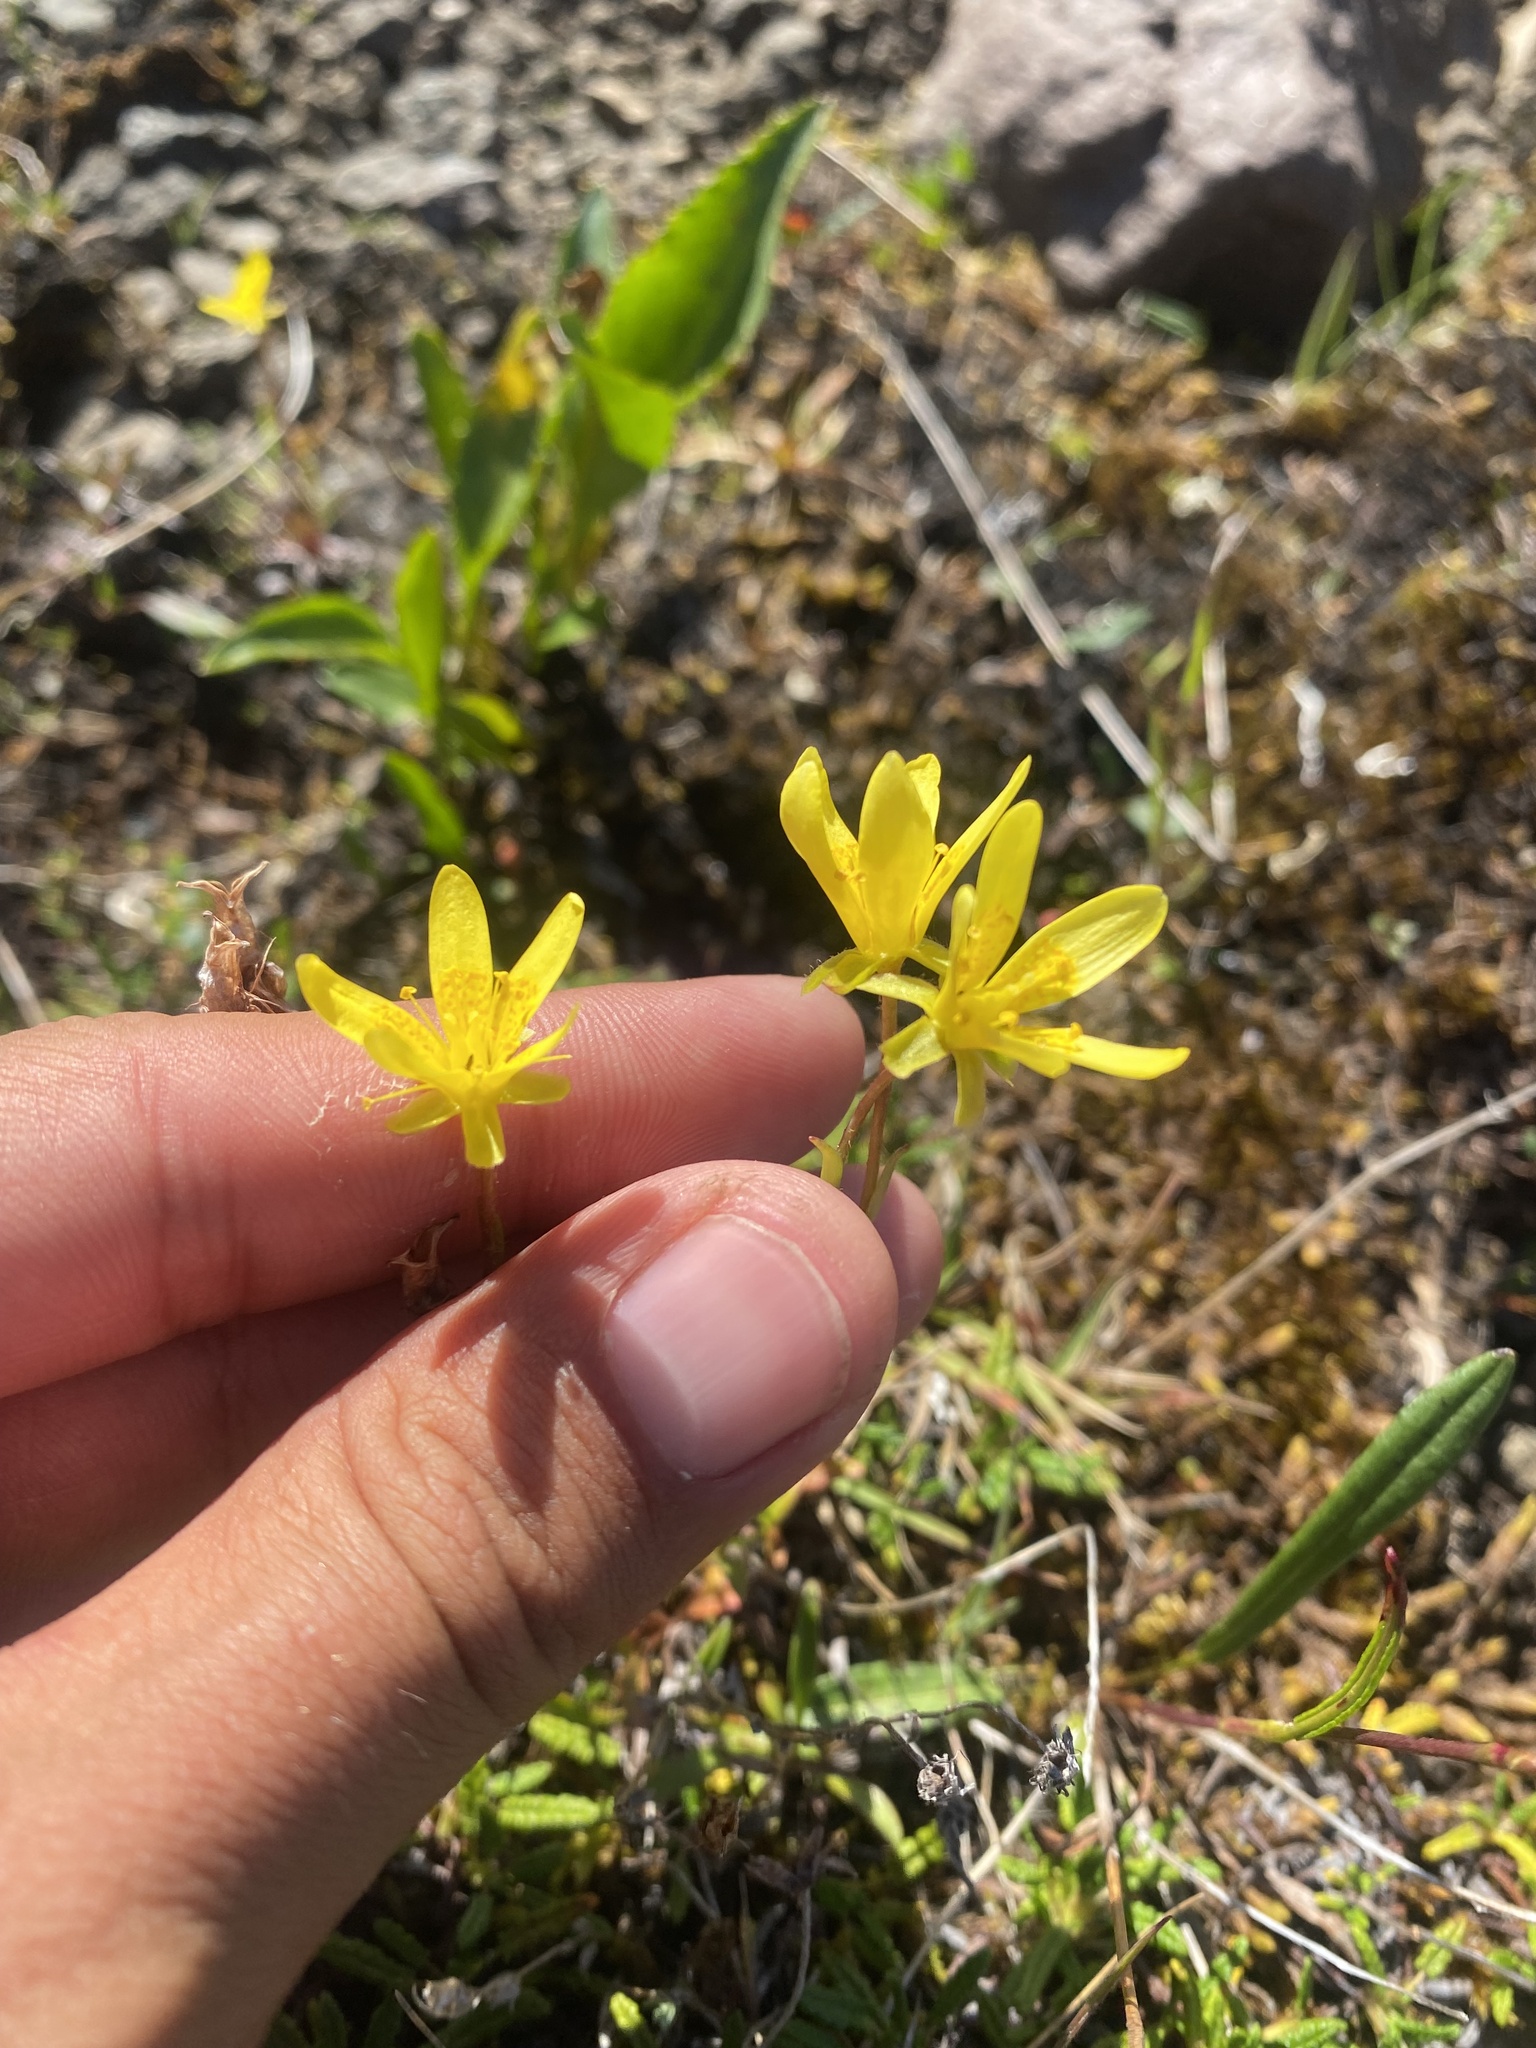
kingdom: Plantae
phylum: Tracheophyta
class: Magnoliopsida
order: Saxifragales
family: Saxifragaceae
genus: Saxifraga
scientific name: Saxifraga hirculus
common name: Yellow marsh saxifrage
